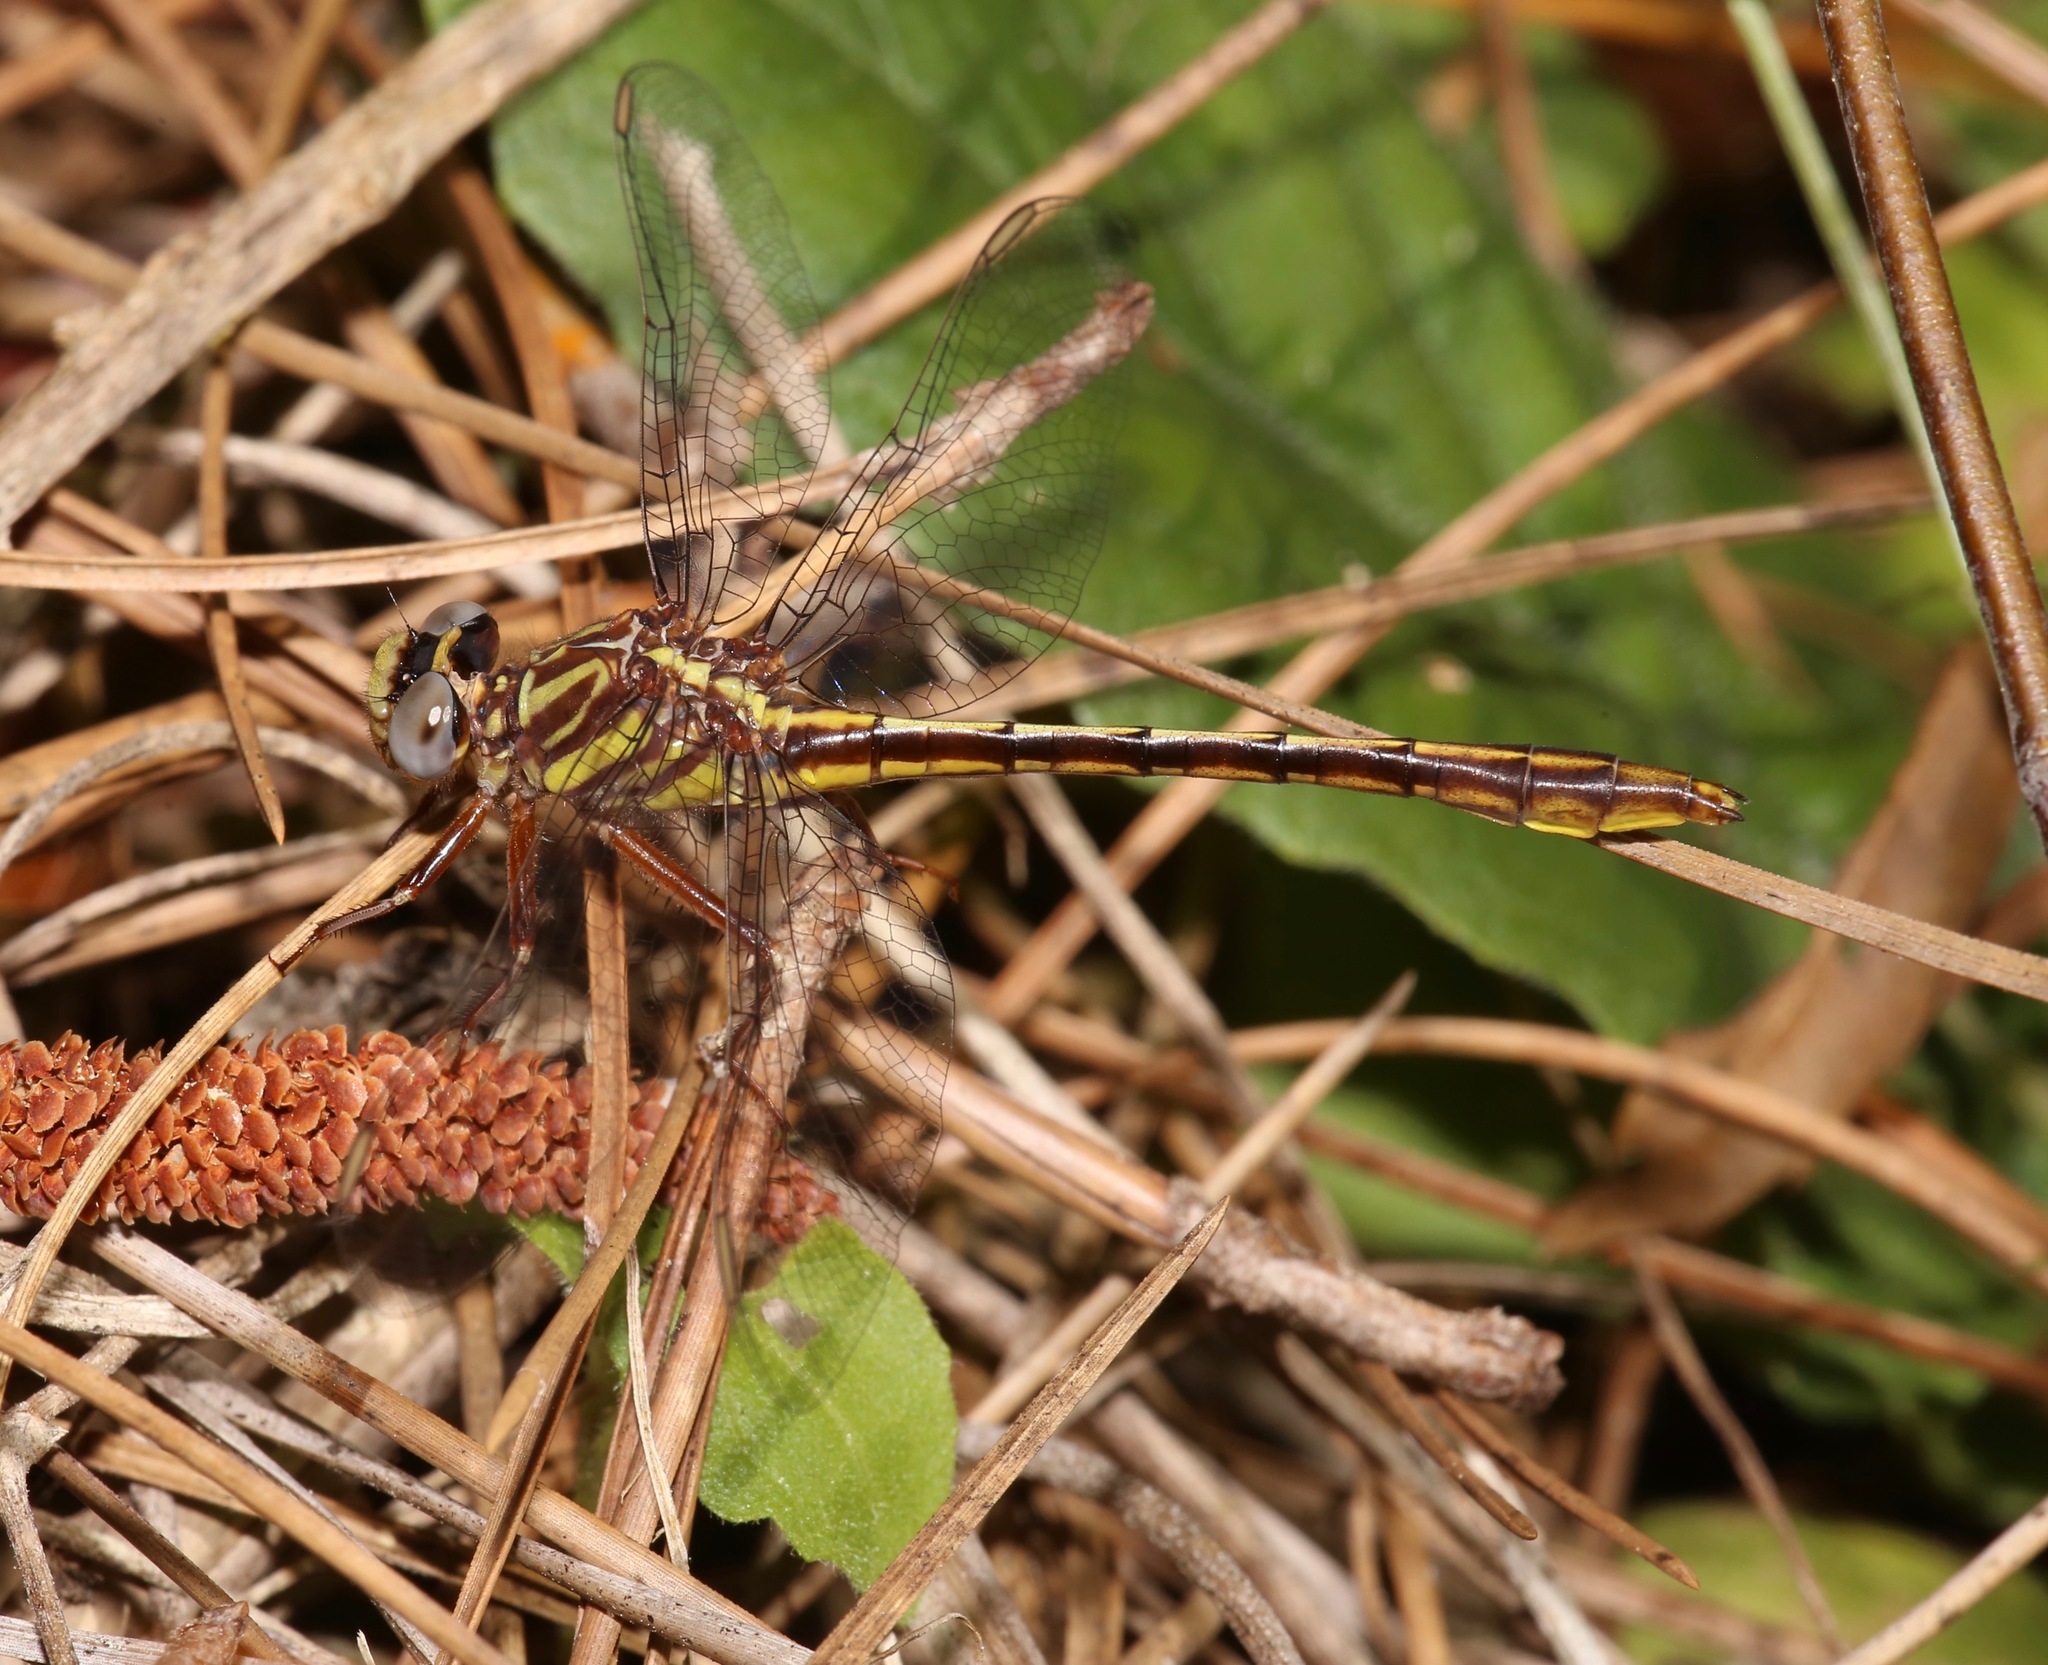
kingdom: Animalia
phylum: Arthropoda
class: Insecta
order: Odonata
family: Gomphidae
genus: Phanogomphus
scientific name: Phanogomphus minutus
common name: Cypress clubtail
